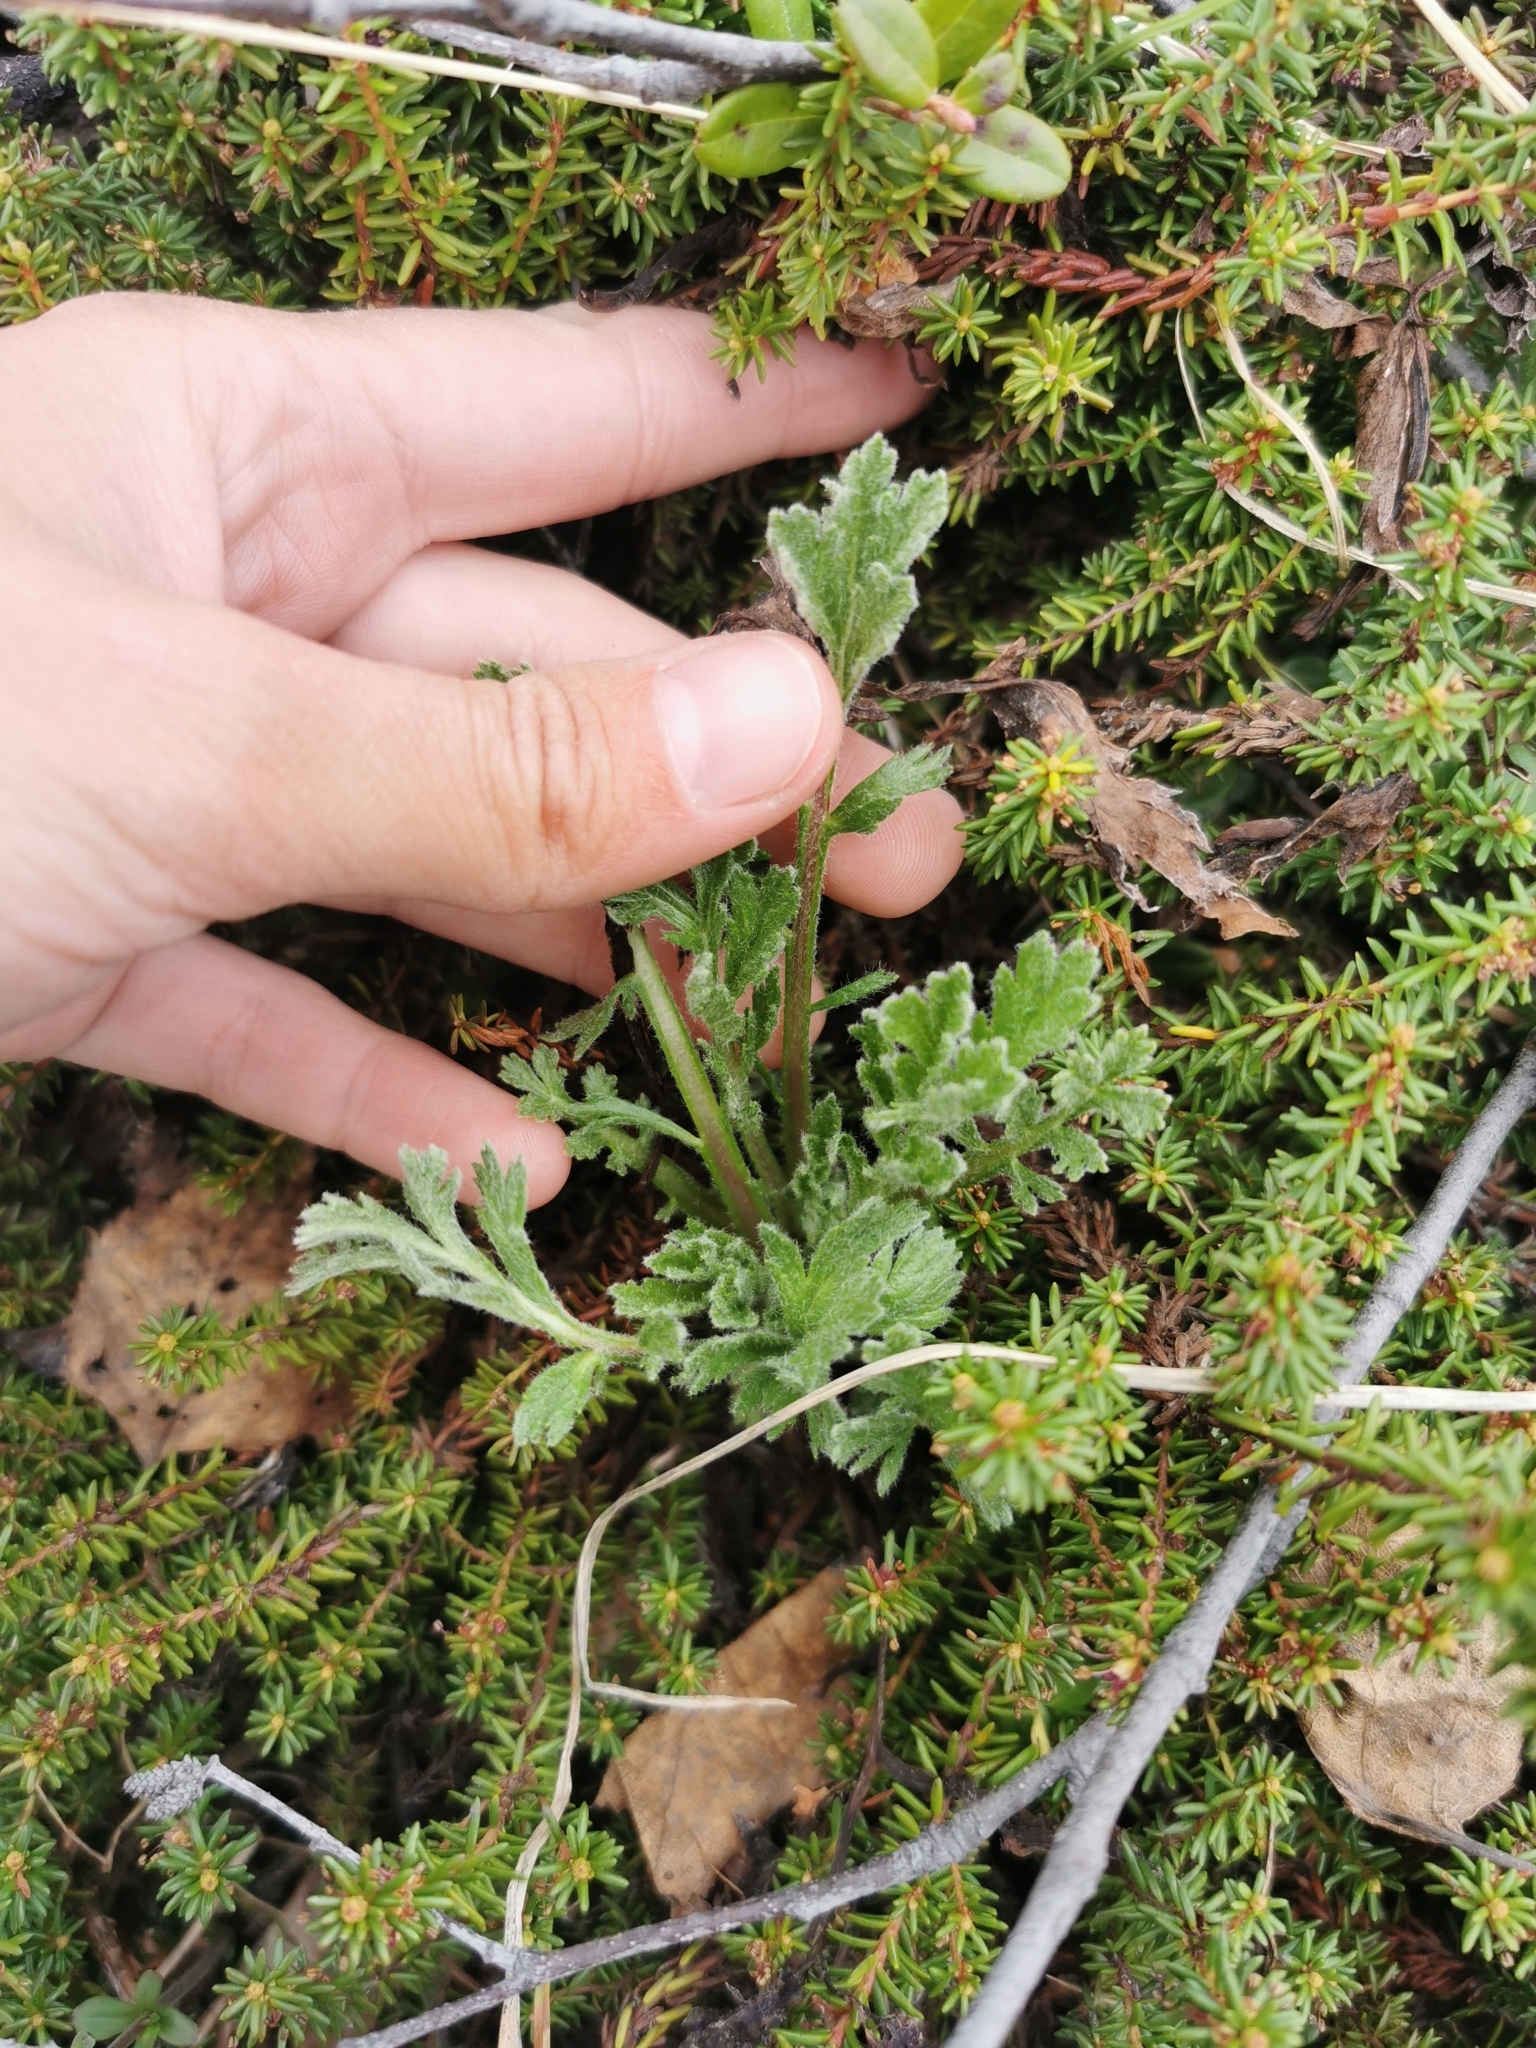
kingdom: Plantae
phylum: Tracheophyta
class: Magnoliopsida
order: Asterales
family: Asteraceae
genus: Artemisia
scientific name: Artemisia arctica
